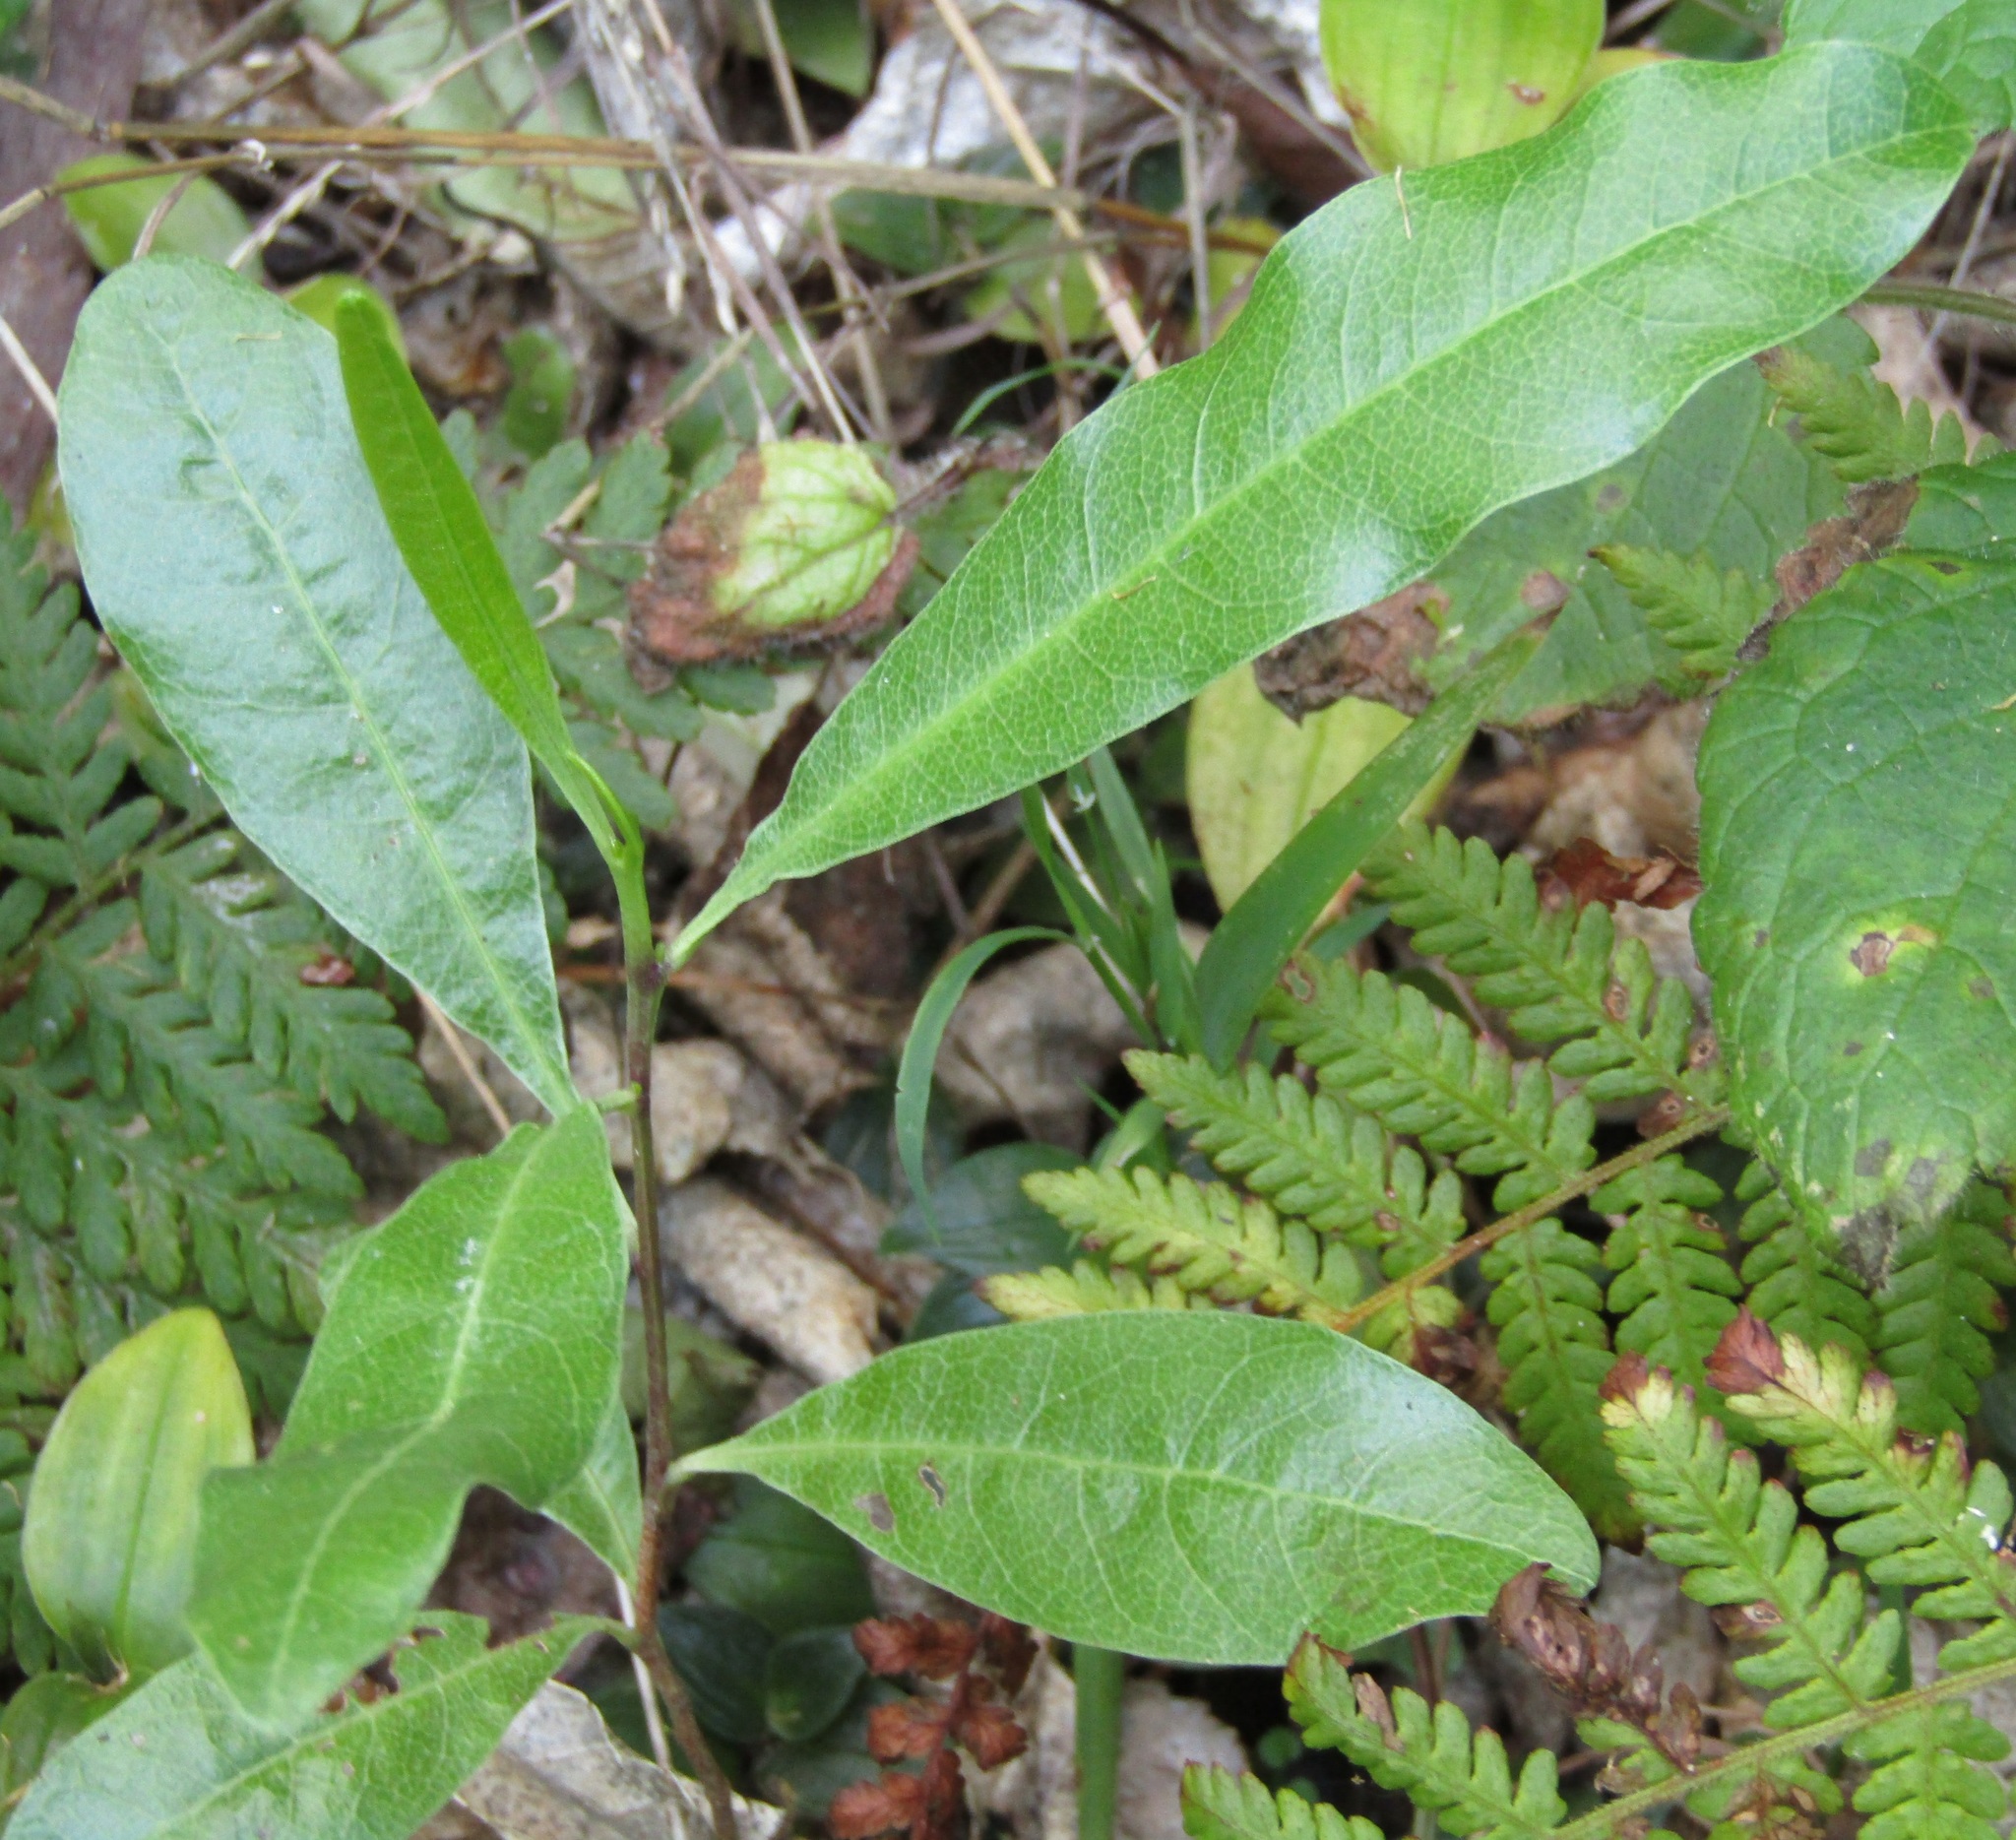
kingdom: Plantae
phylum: Tracheophyta
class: Magnoliopsida
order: Sapindales
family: Sapindaceae
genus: Dodonaea
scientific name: Dodonaea viscosa
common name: Hopbush
